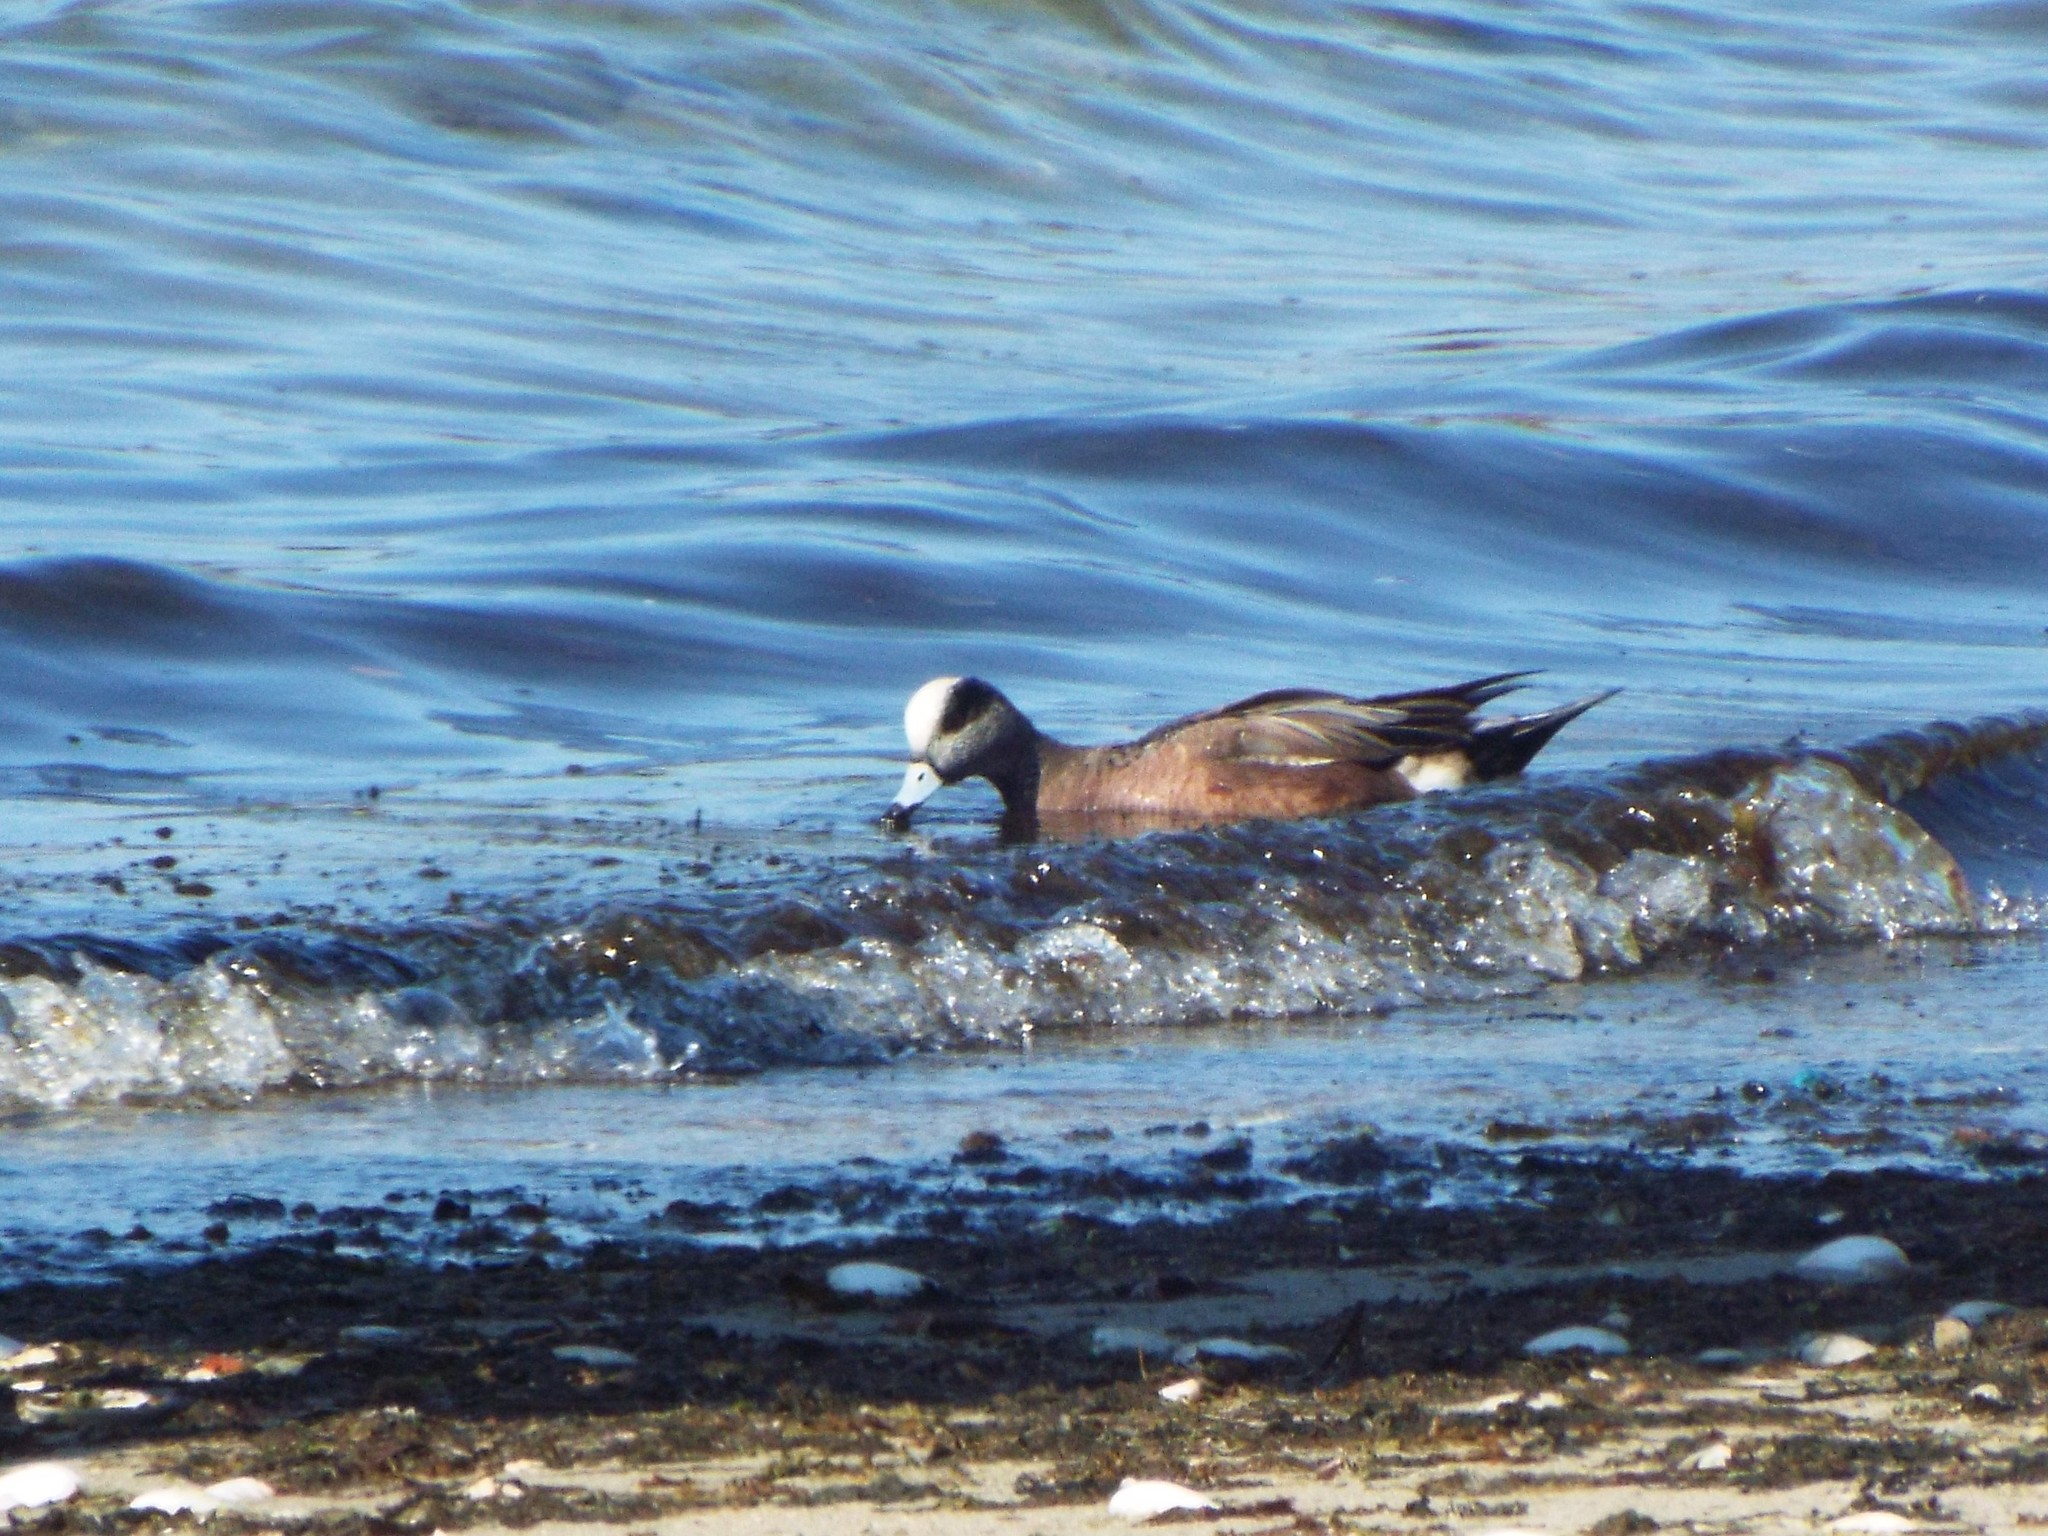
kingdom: Animalia
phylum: Chordata
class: Aves
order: Anseriformes
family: Anatidae
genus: Mareca
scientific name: Mareca americana
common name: American wigeon
